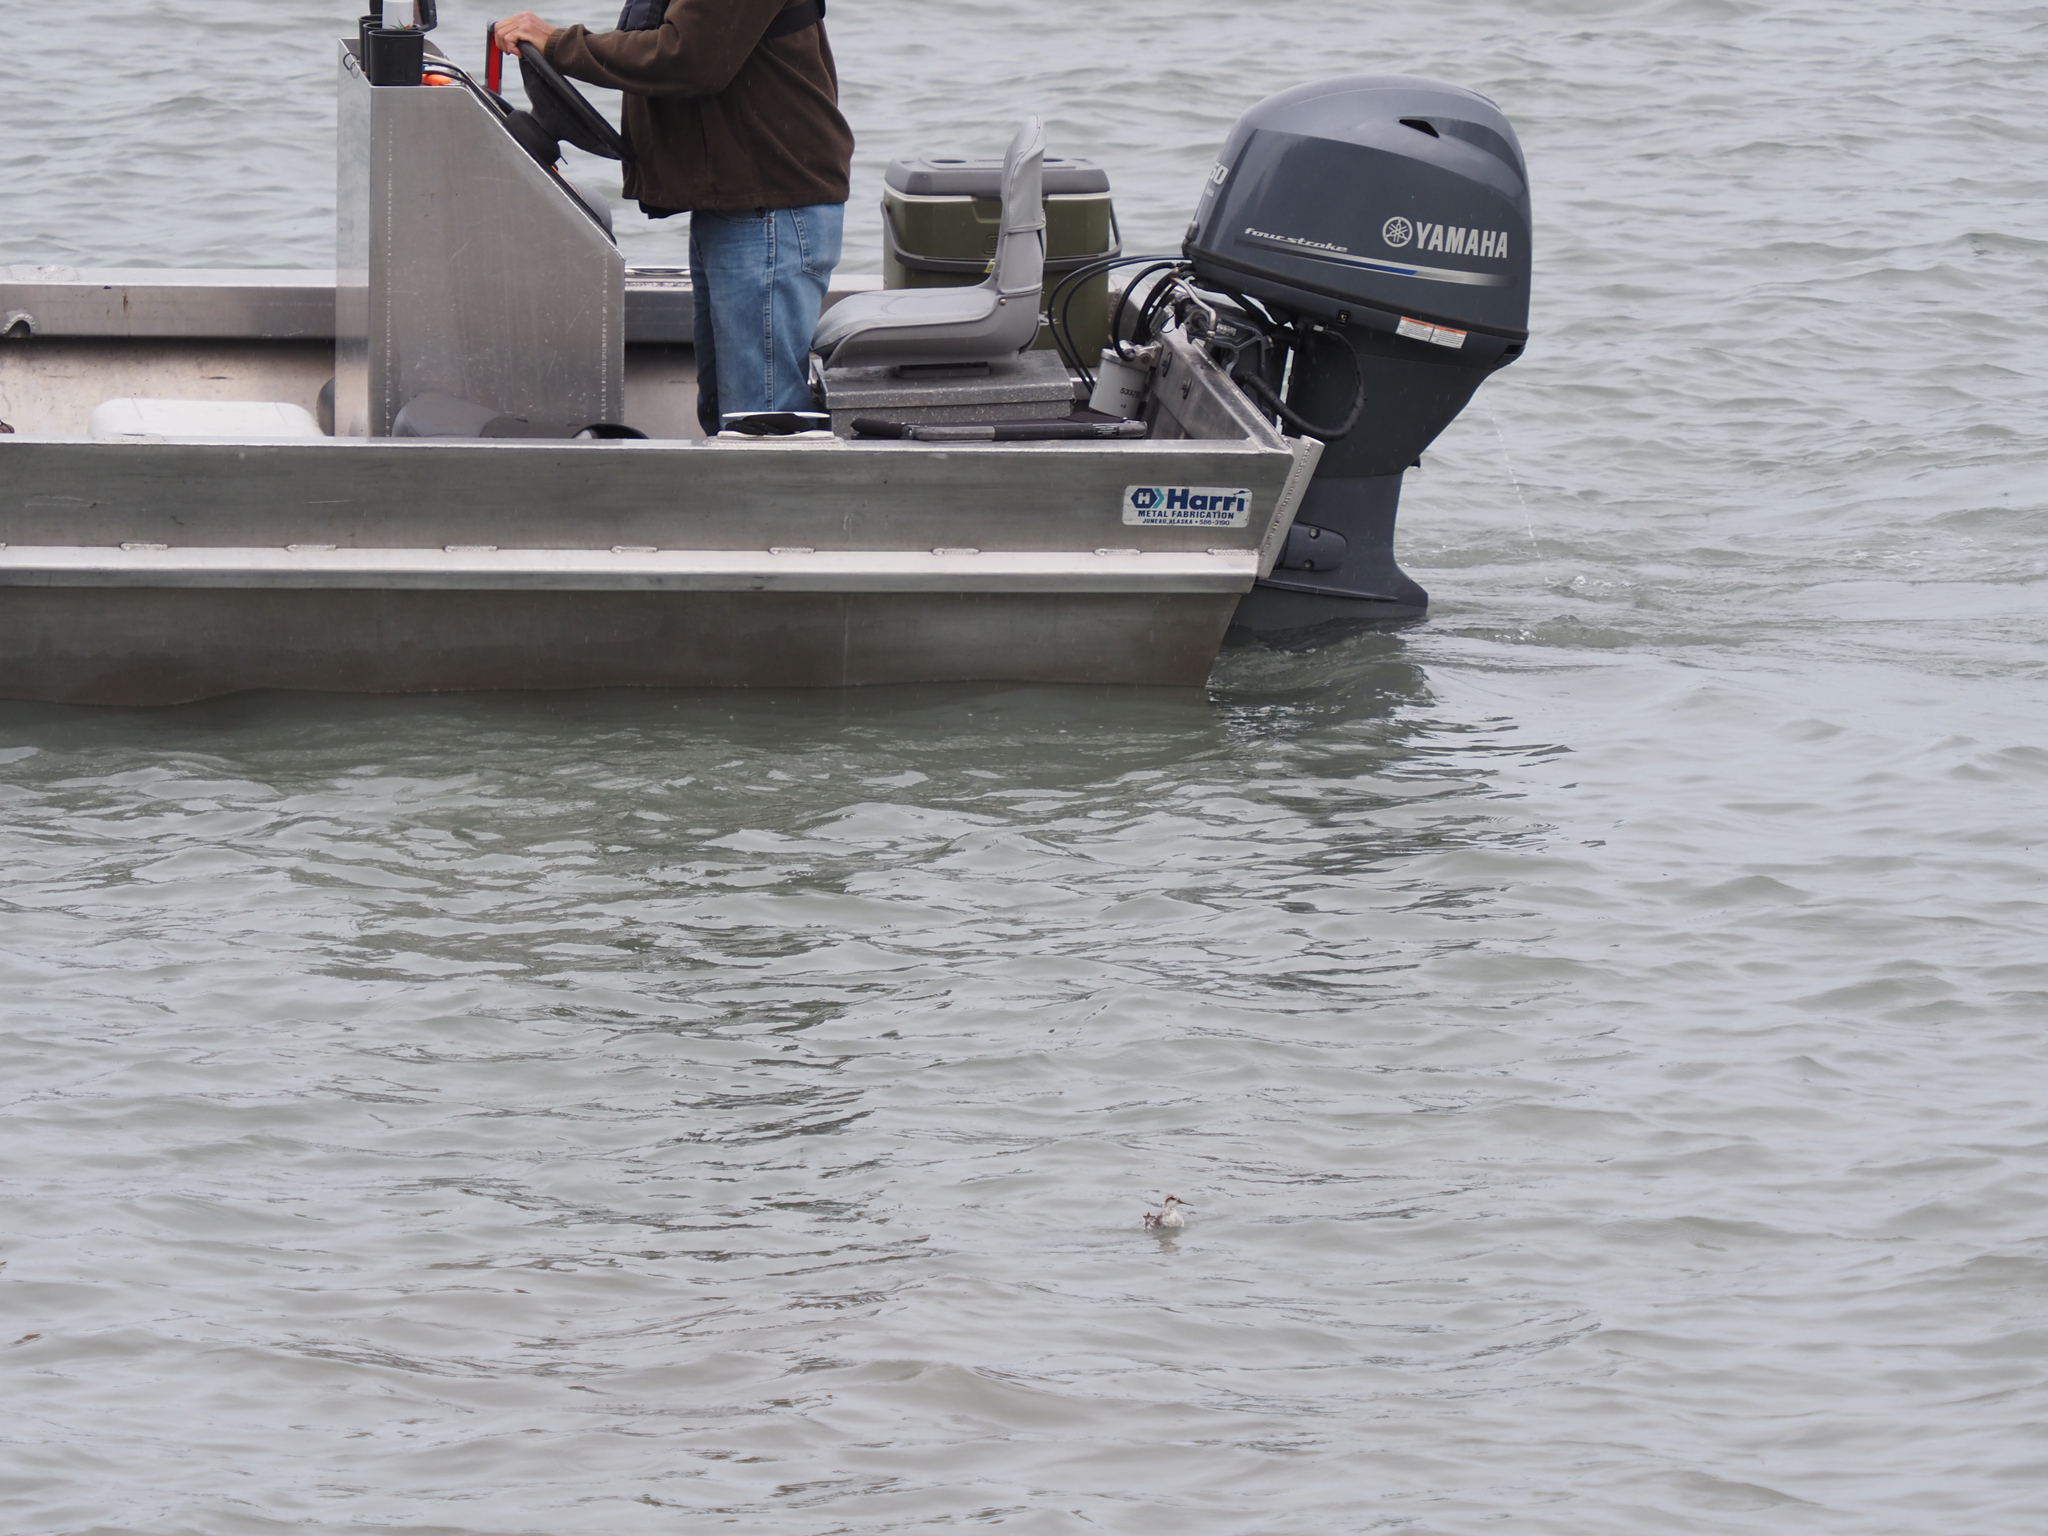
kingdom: Animalia
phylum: Chordata
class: Aves
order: Charadriiformes
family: Scolopacidae
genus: Phalaropus
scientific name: Phalaropus lobatus
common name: Red-necked phalarope
